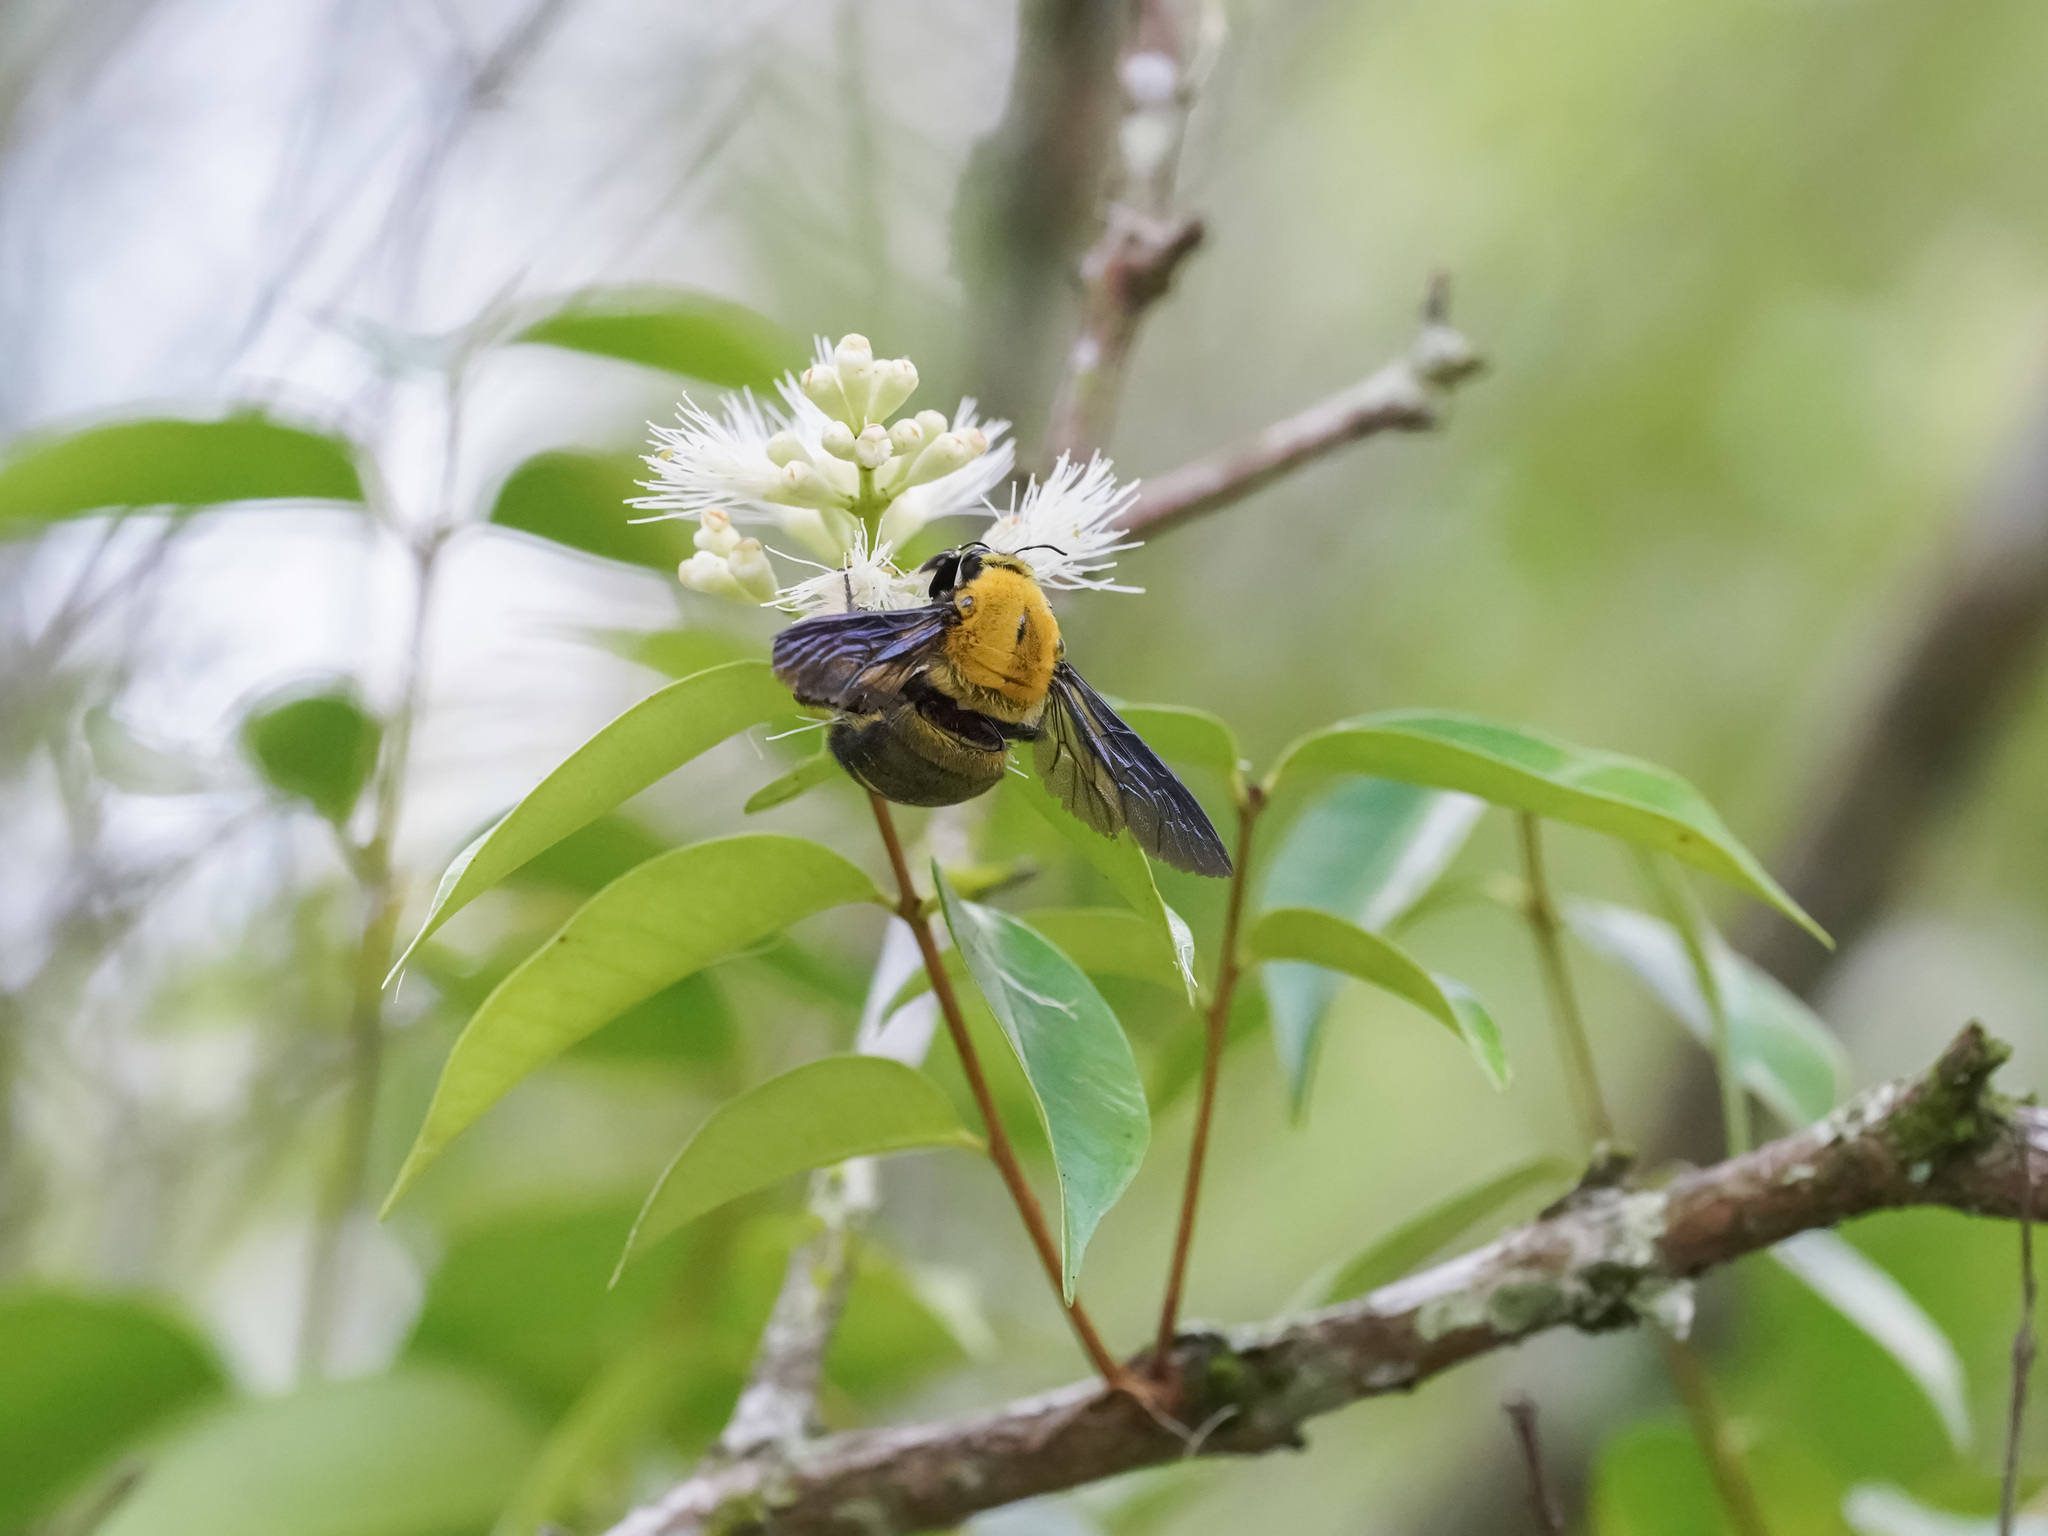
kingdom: Animalia
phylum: Arthropoda
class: Insecta
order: Hymenoptera
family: Apidae
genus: Xylocopa
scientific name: Xylocopa flavonigrescens
